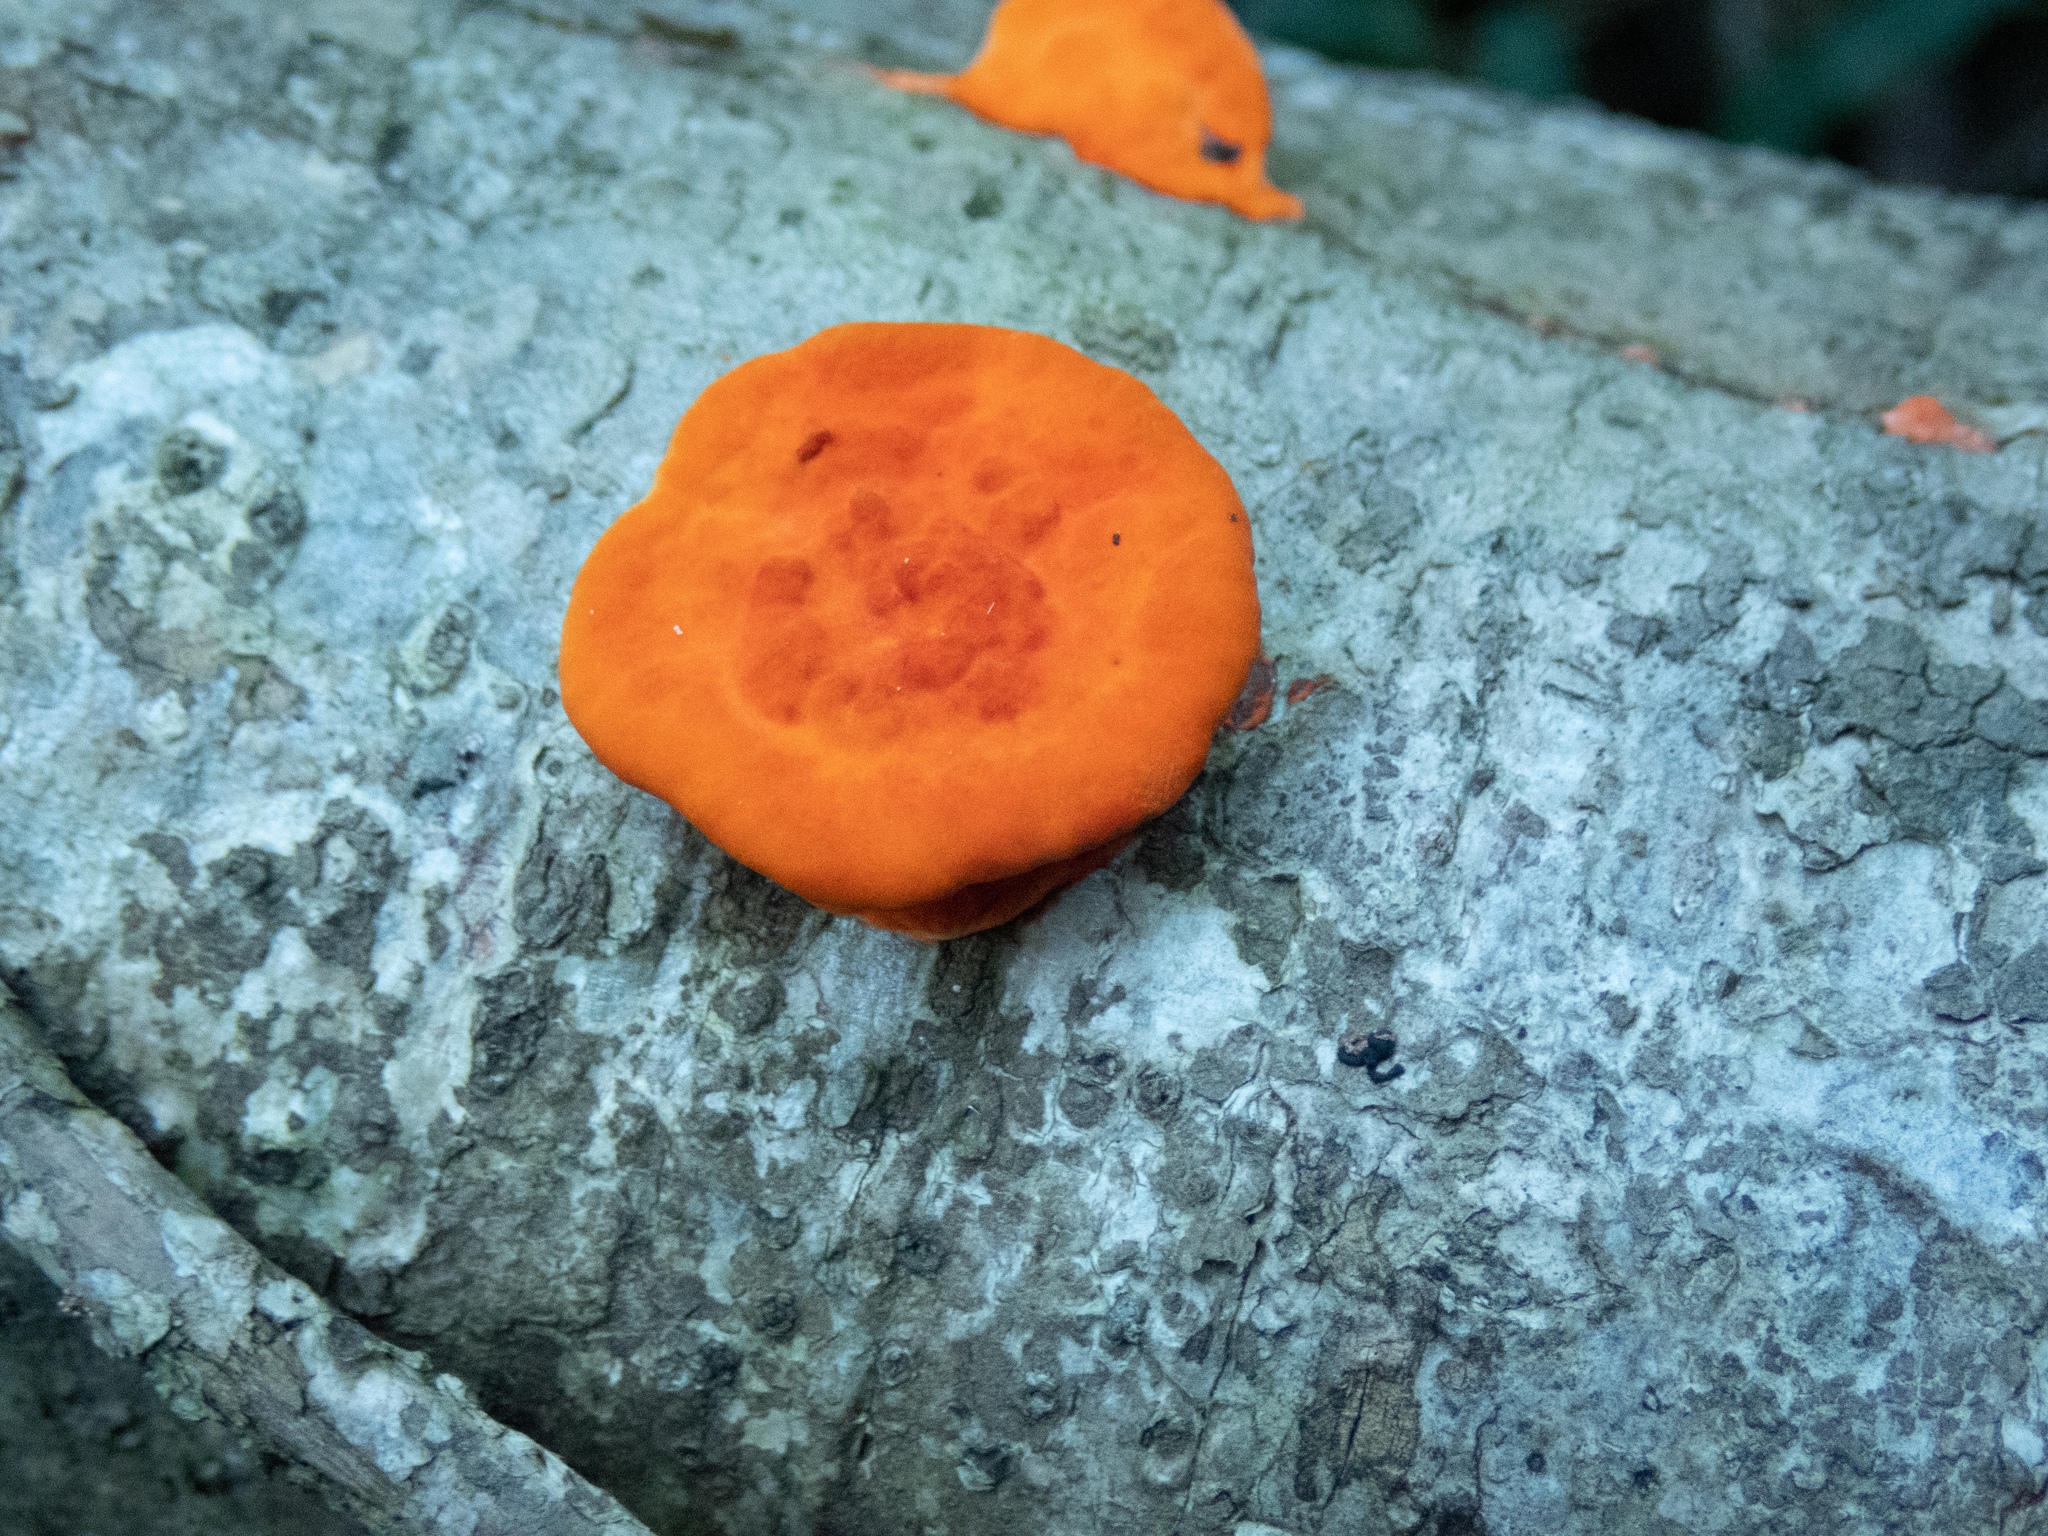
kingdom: Fungi
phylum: Basidiomycota
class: Agaricomycetes
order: Polyporales
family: Polyporaceae
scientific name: Polyporaceae
